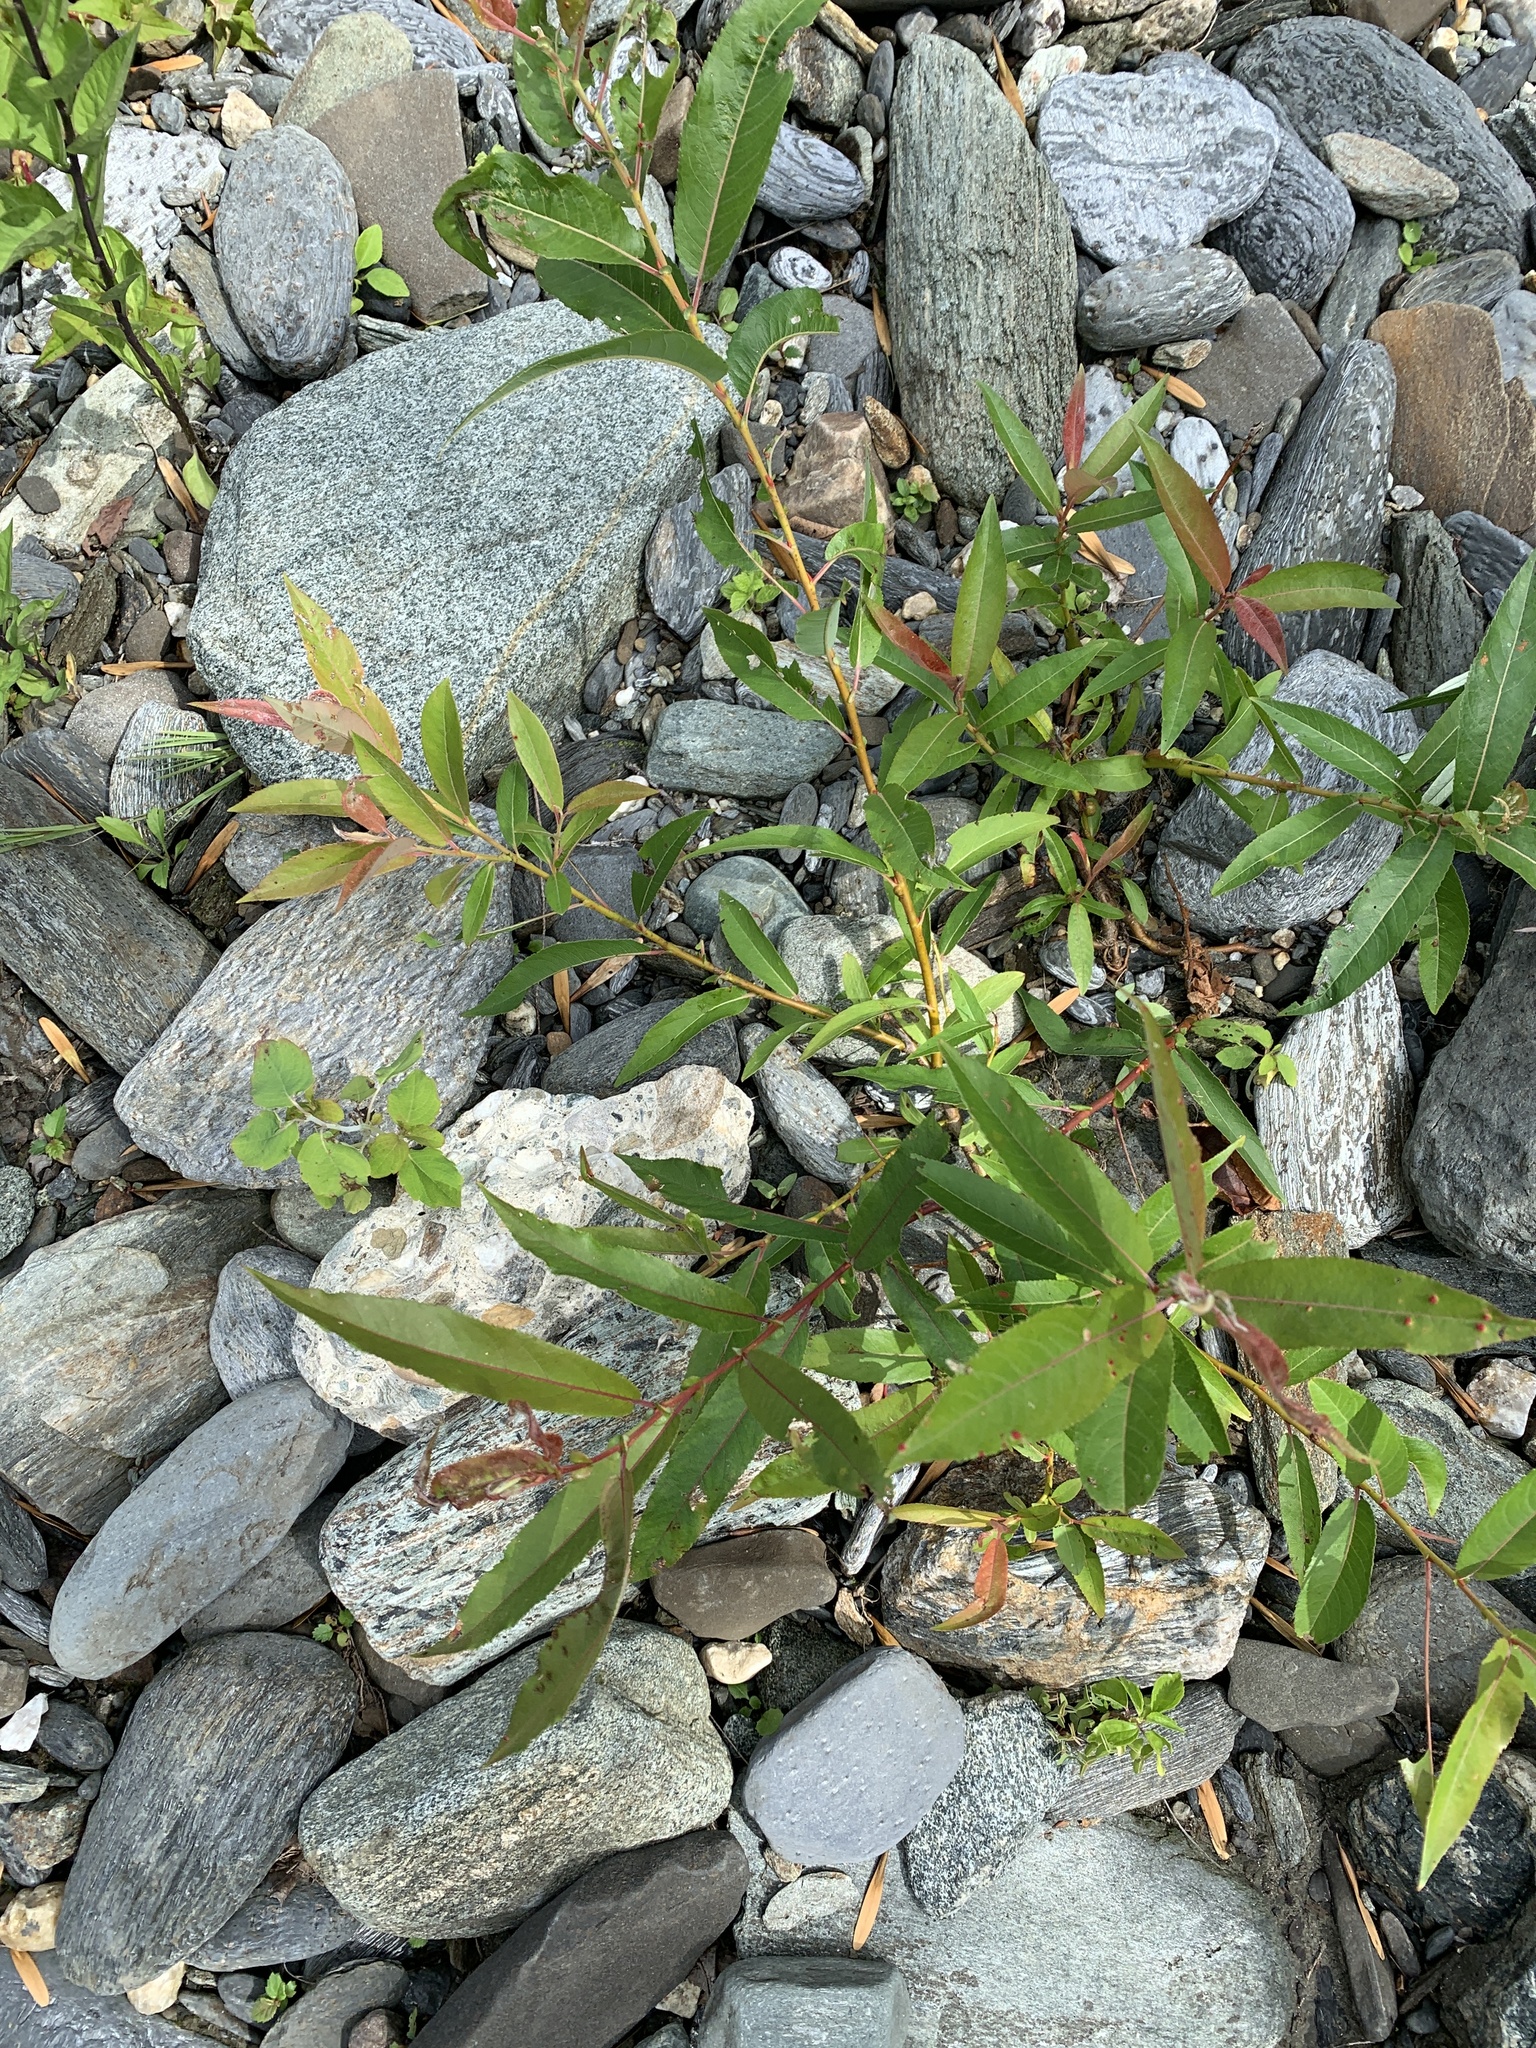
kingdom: Plantae
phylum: Tracheophyta
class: Magnoliopsida
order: Malpighiales
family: Salicaceae
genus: Salix
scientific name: Salix eriocephala
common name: Heart-leaved willow
